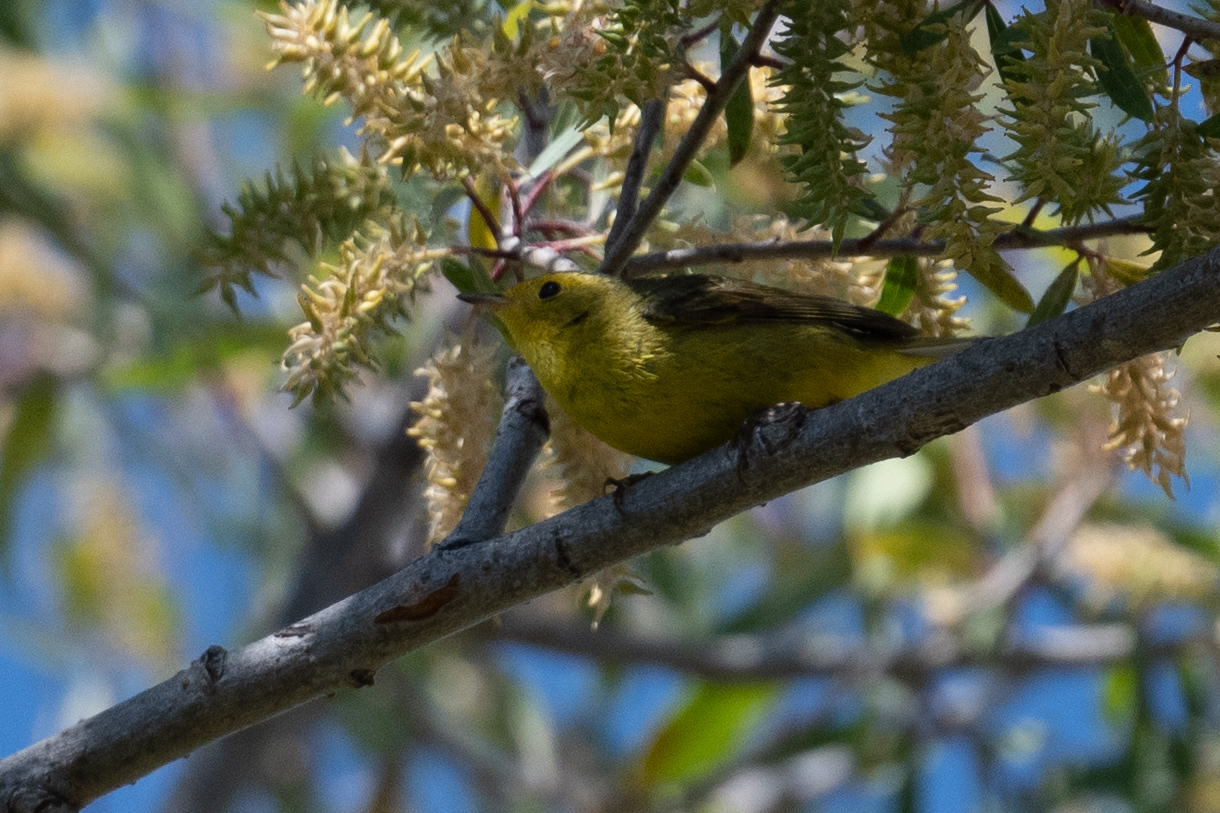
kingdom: Animalia
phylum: Chordata
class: Aves
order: Passeriformes
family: Parulidae
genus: Cardellina
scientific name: Cardellina pusilla
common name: Wilson's warbler
